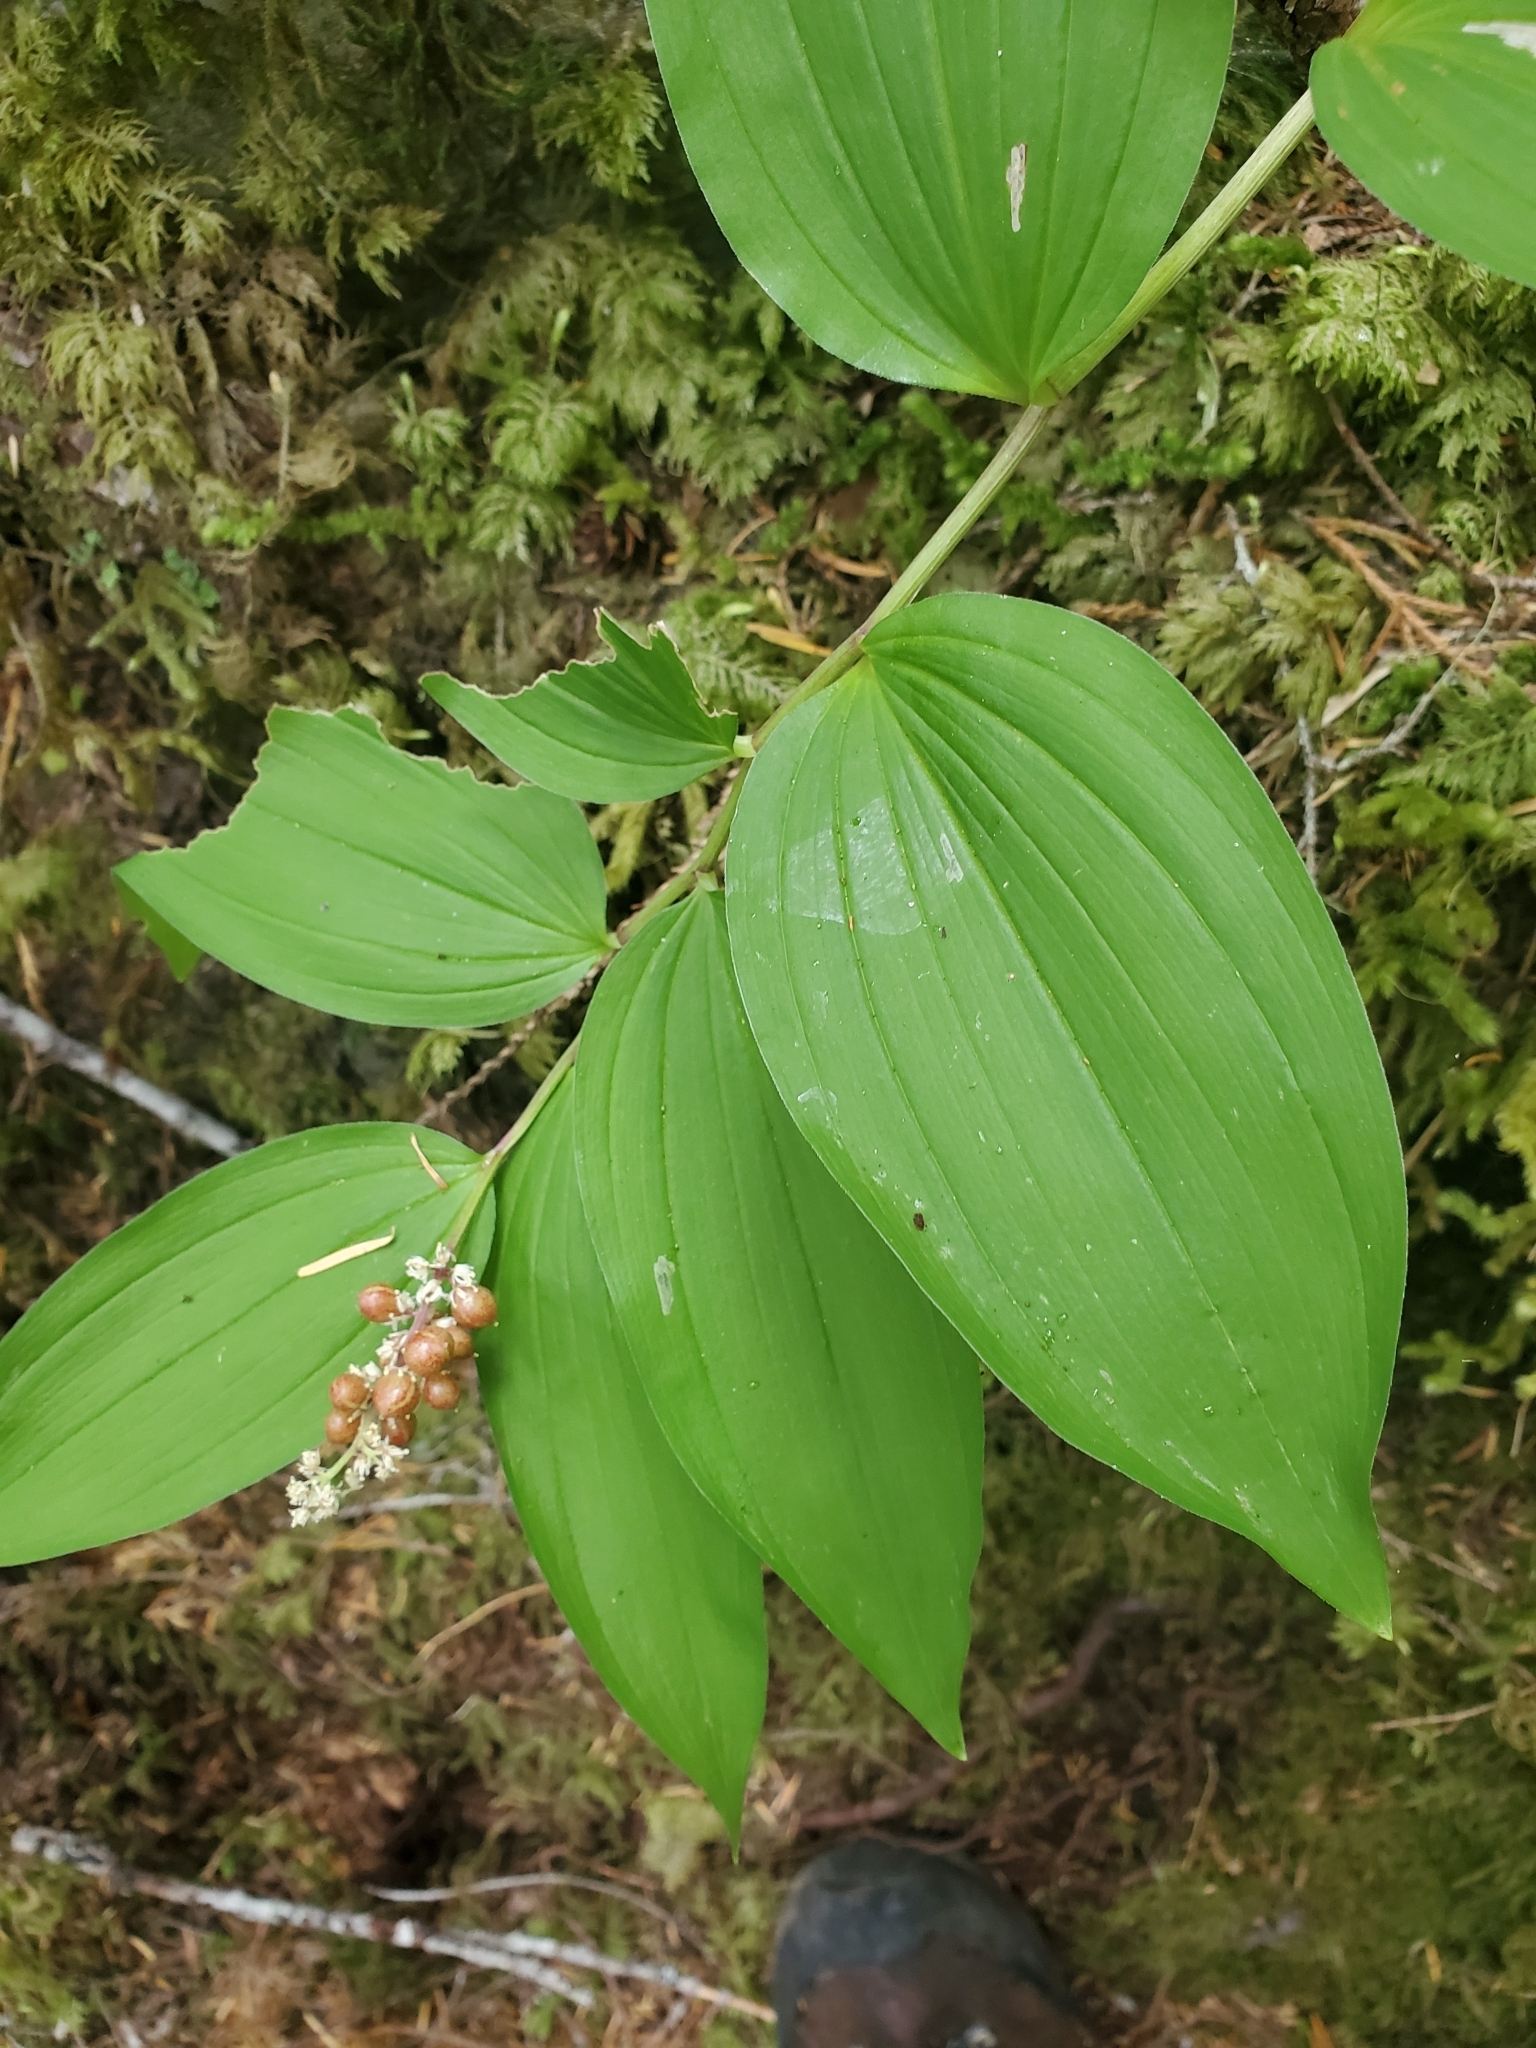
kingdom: Plantae
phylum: Tracheophyta
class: Liliopsida
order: Asparagales
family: Asparagaceae
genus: Maianthemum
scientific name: Maianthemum racemosum
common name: False spikenard
